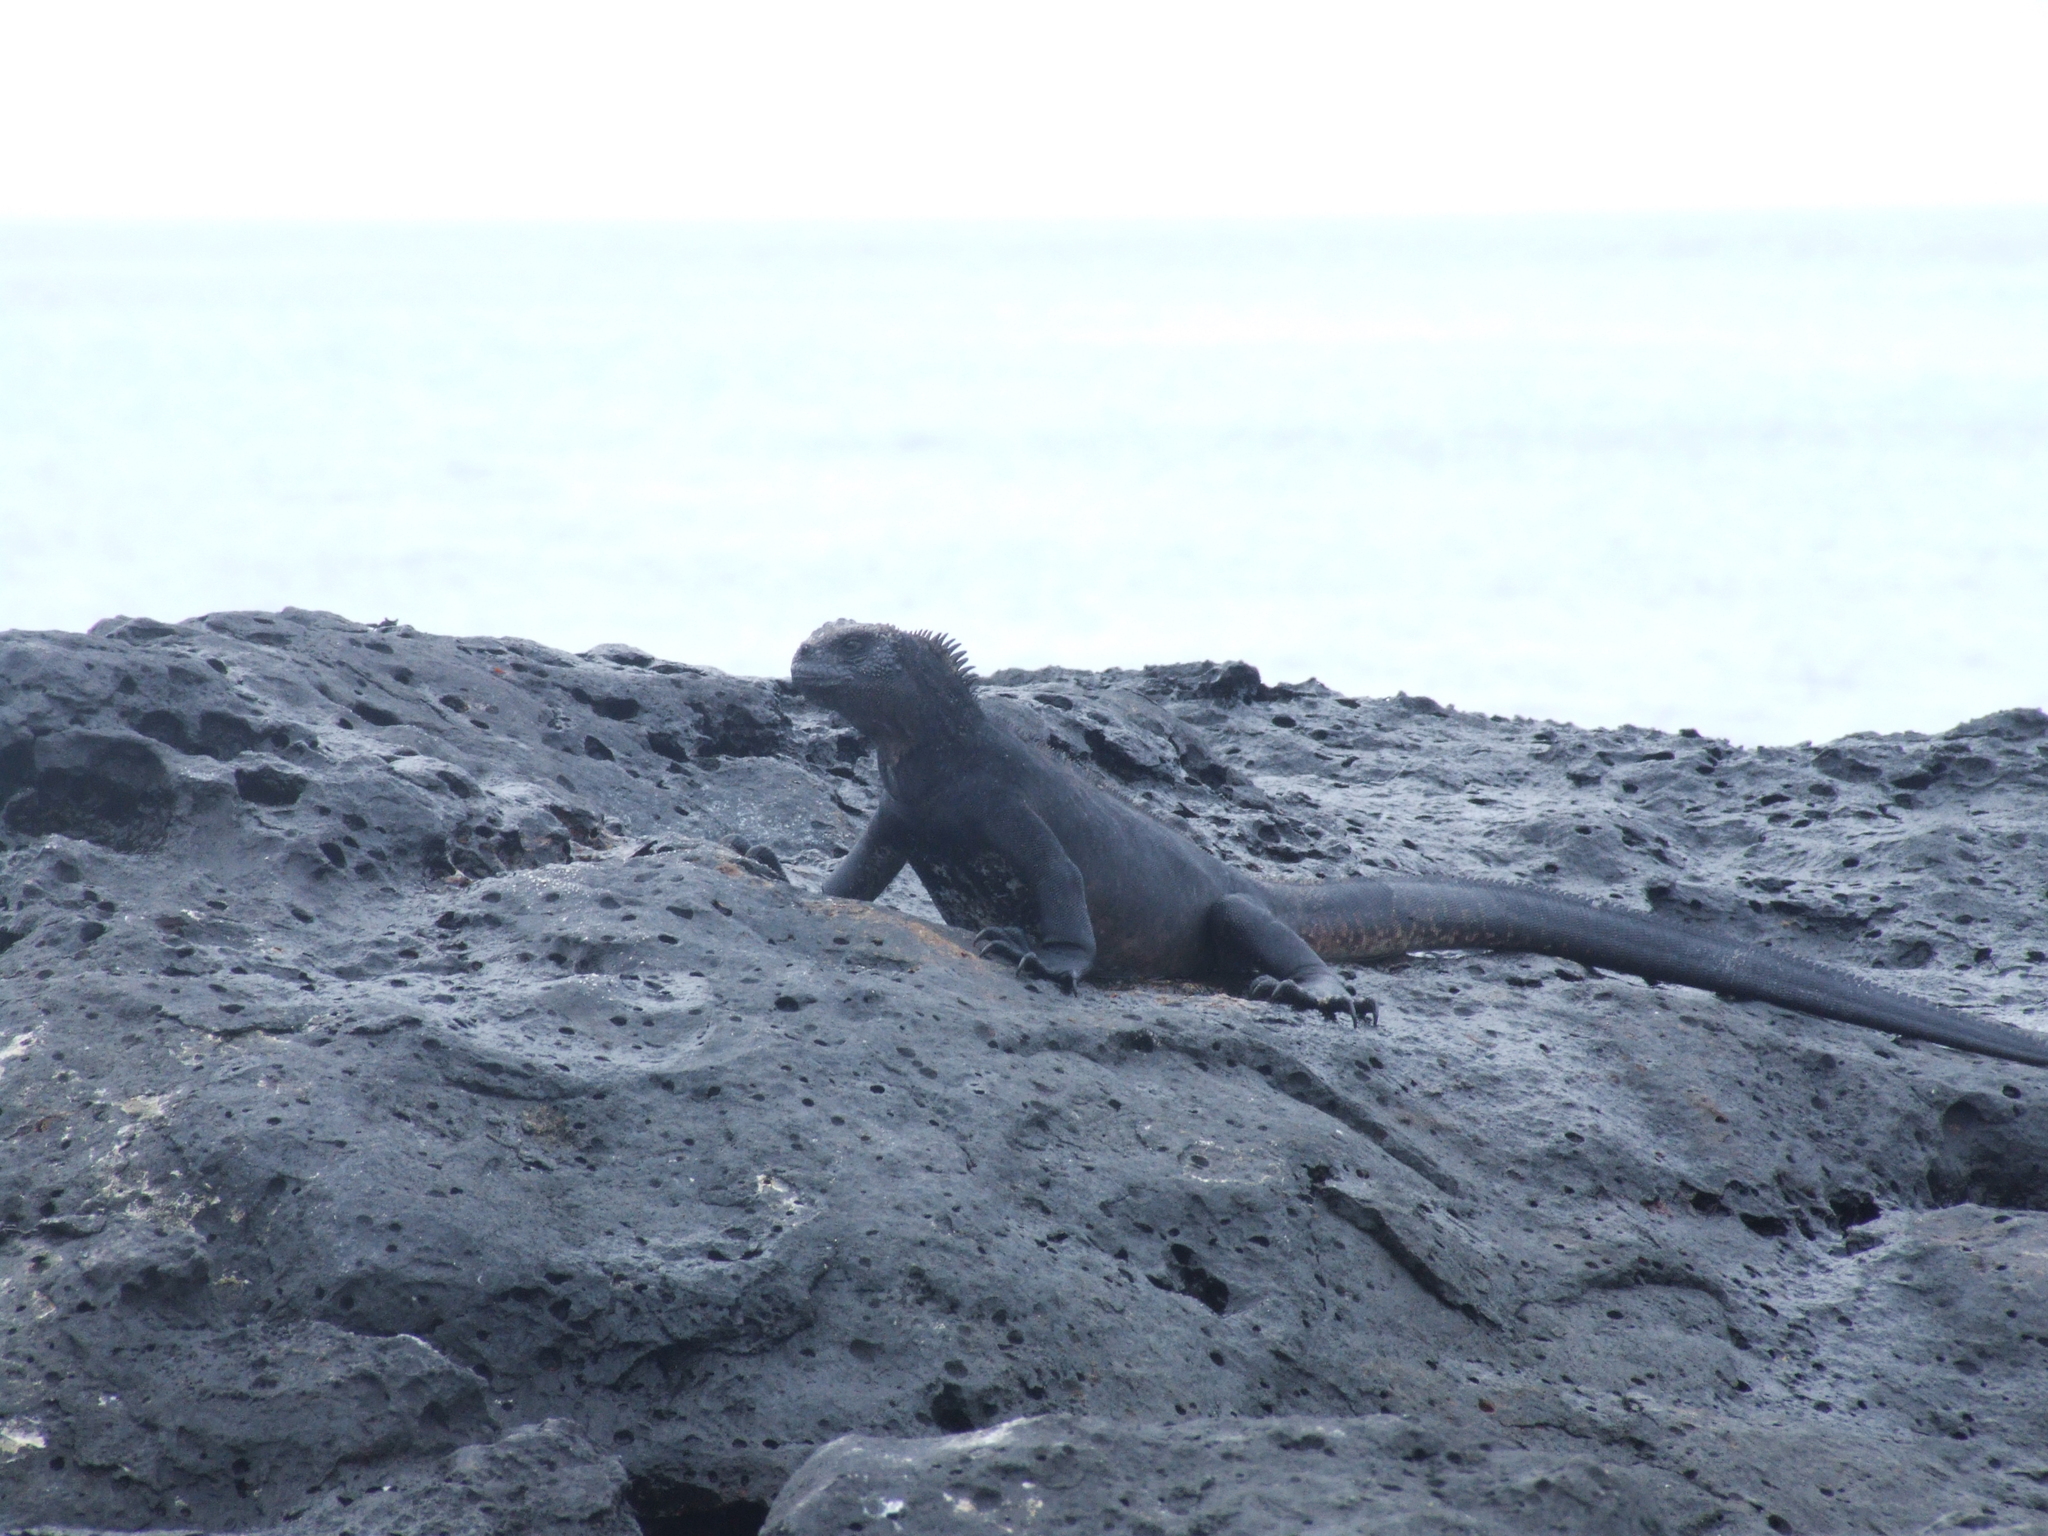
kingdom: Animalia
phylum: Chordata
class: Squamata
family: Iguanidae
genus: Amblyrhynchus
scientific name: Amblyrhynchus cristatus
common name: Marine iguana
